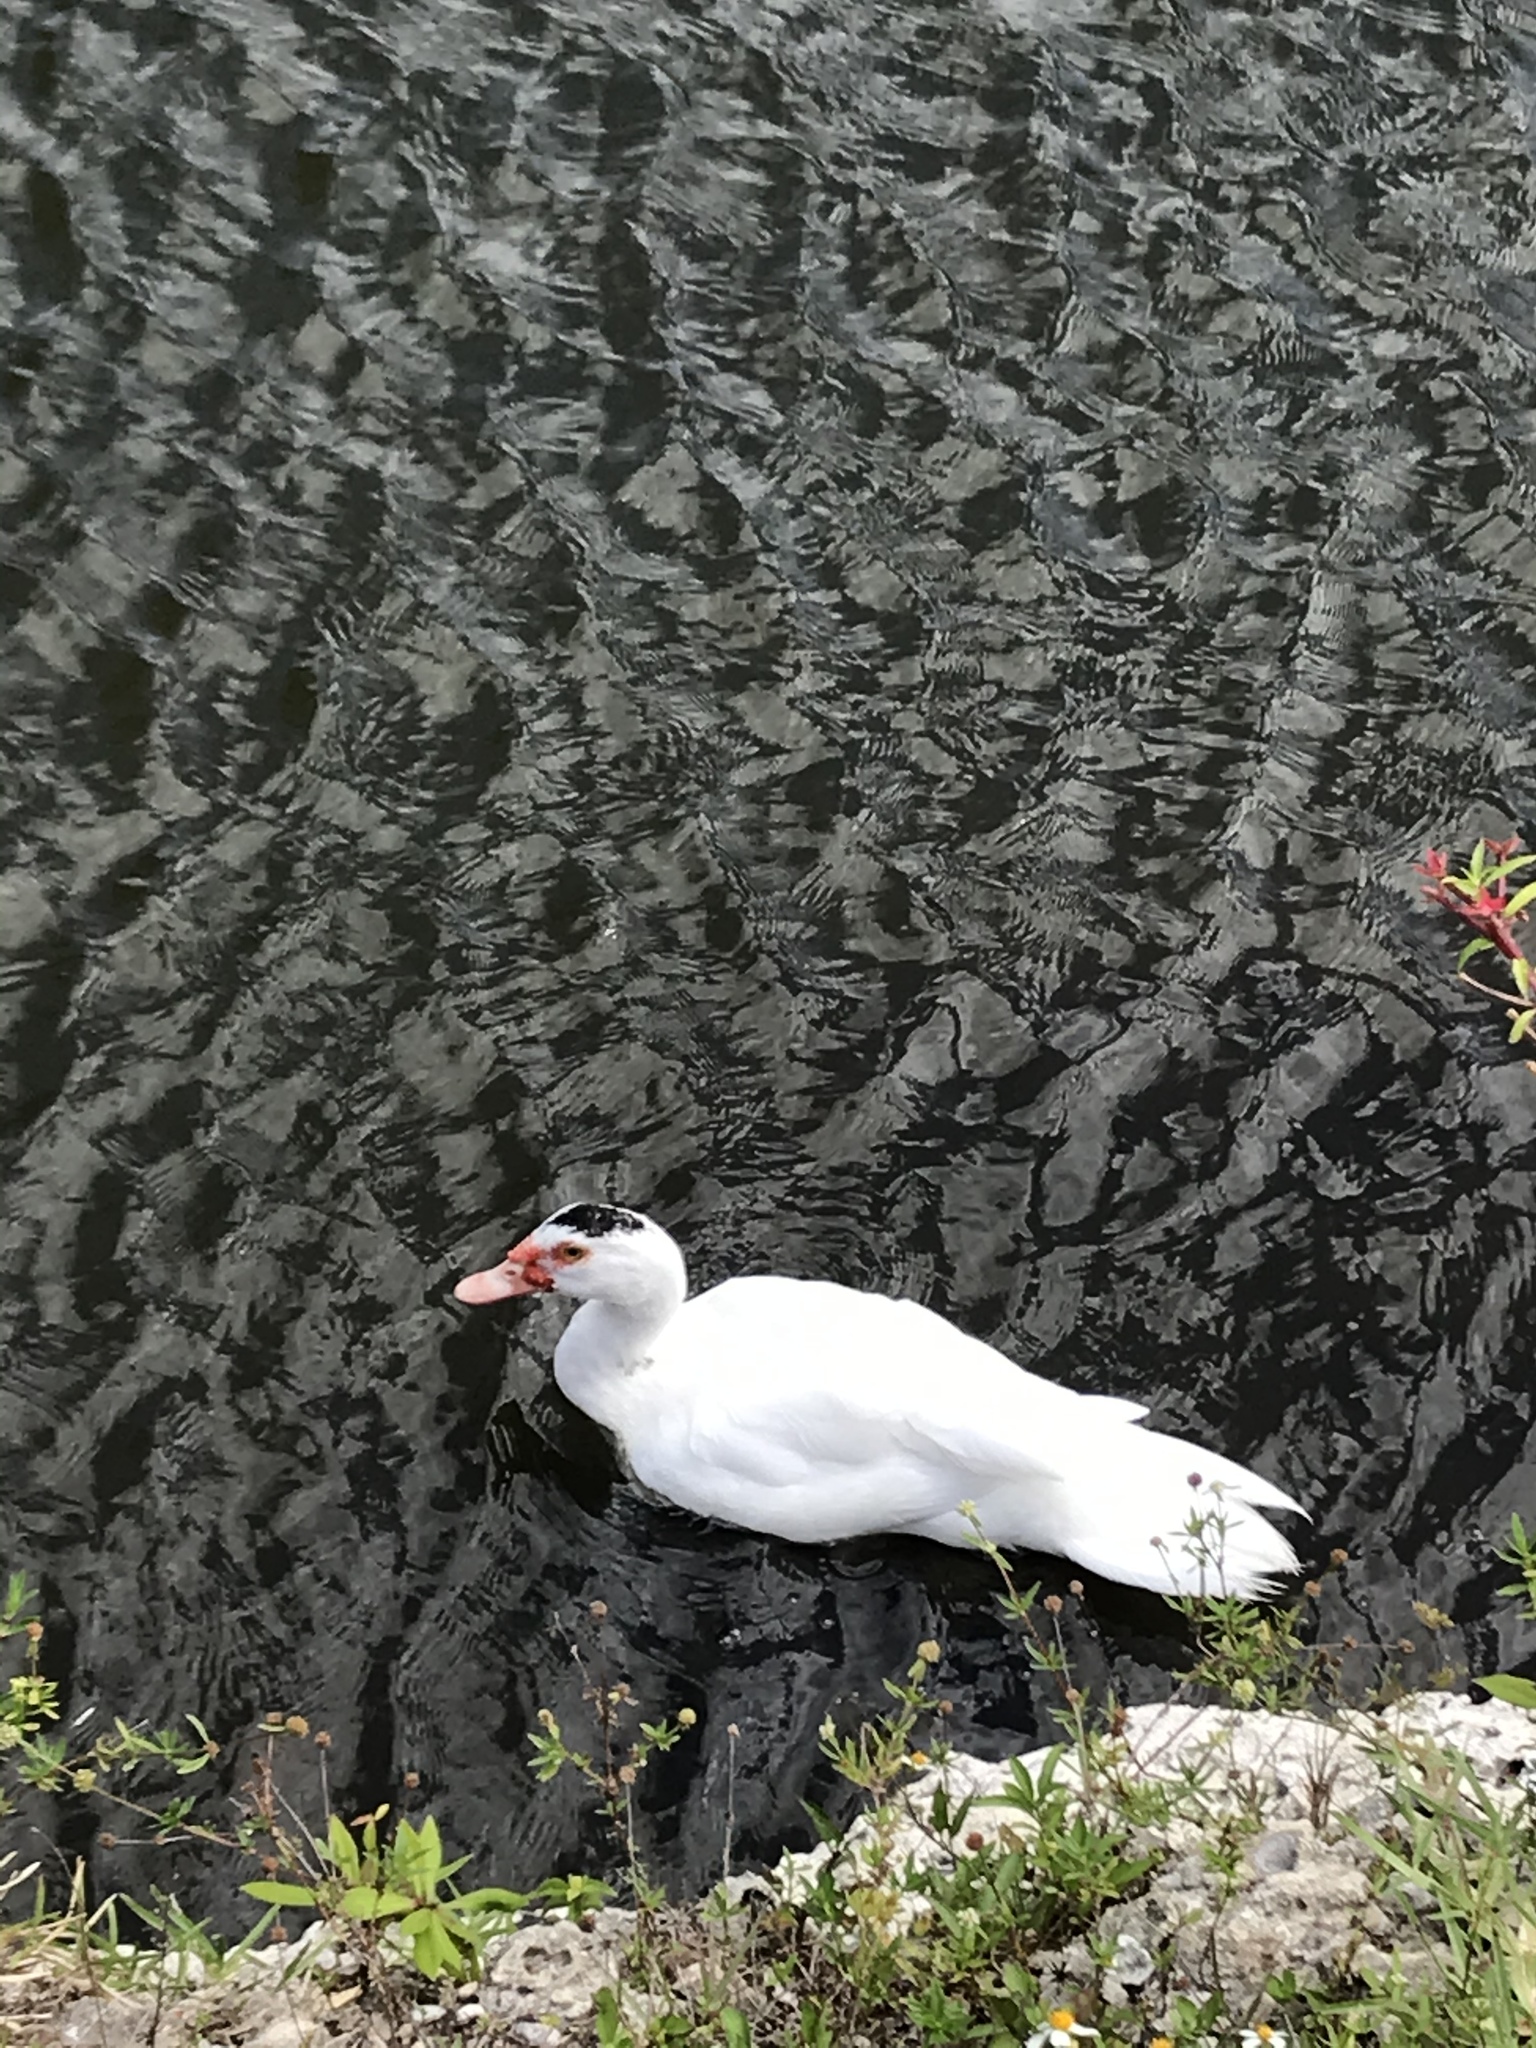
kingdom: Animalia
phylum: Chordata
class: Aves
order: Anseriformes
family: Anatidae
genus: Cairina
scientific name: Cairina moschata
